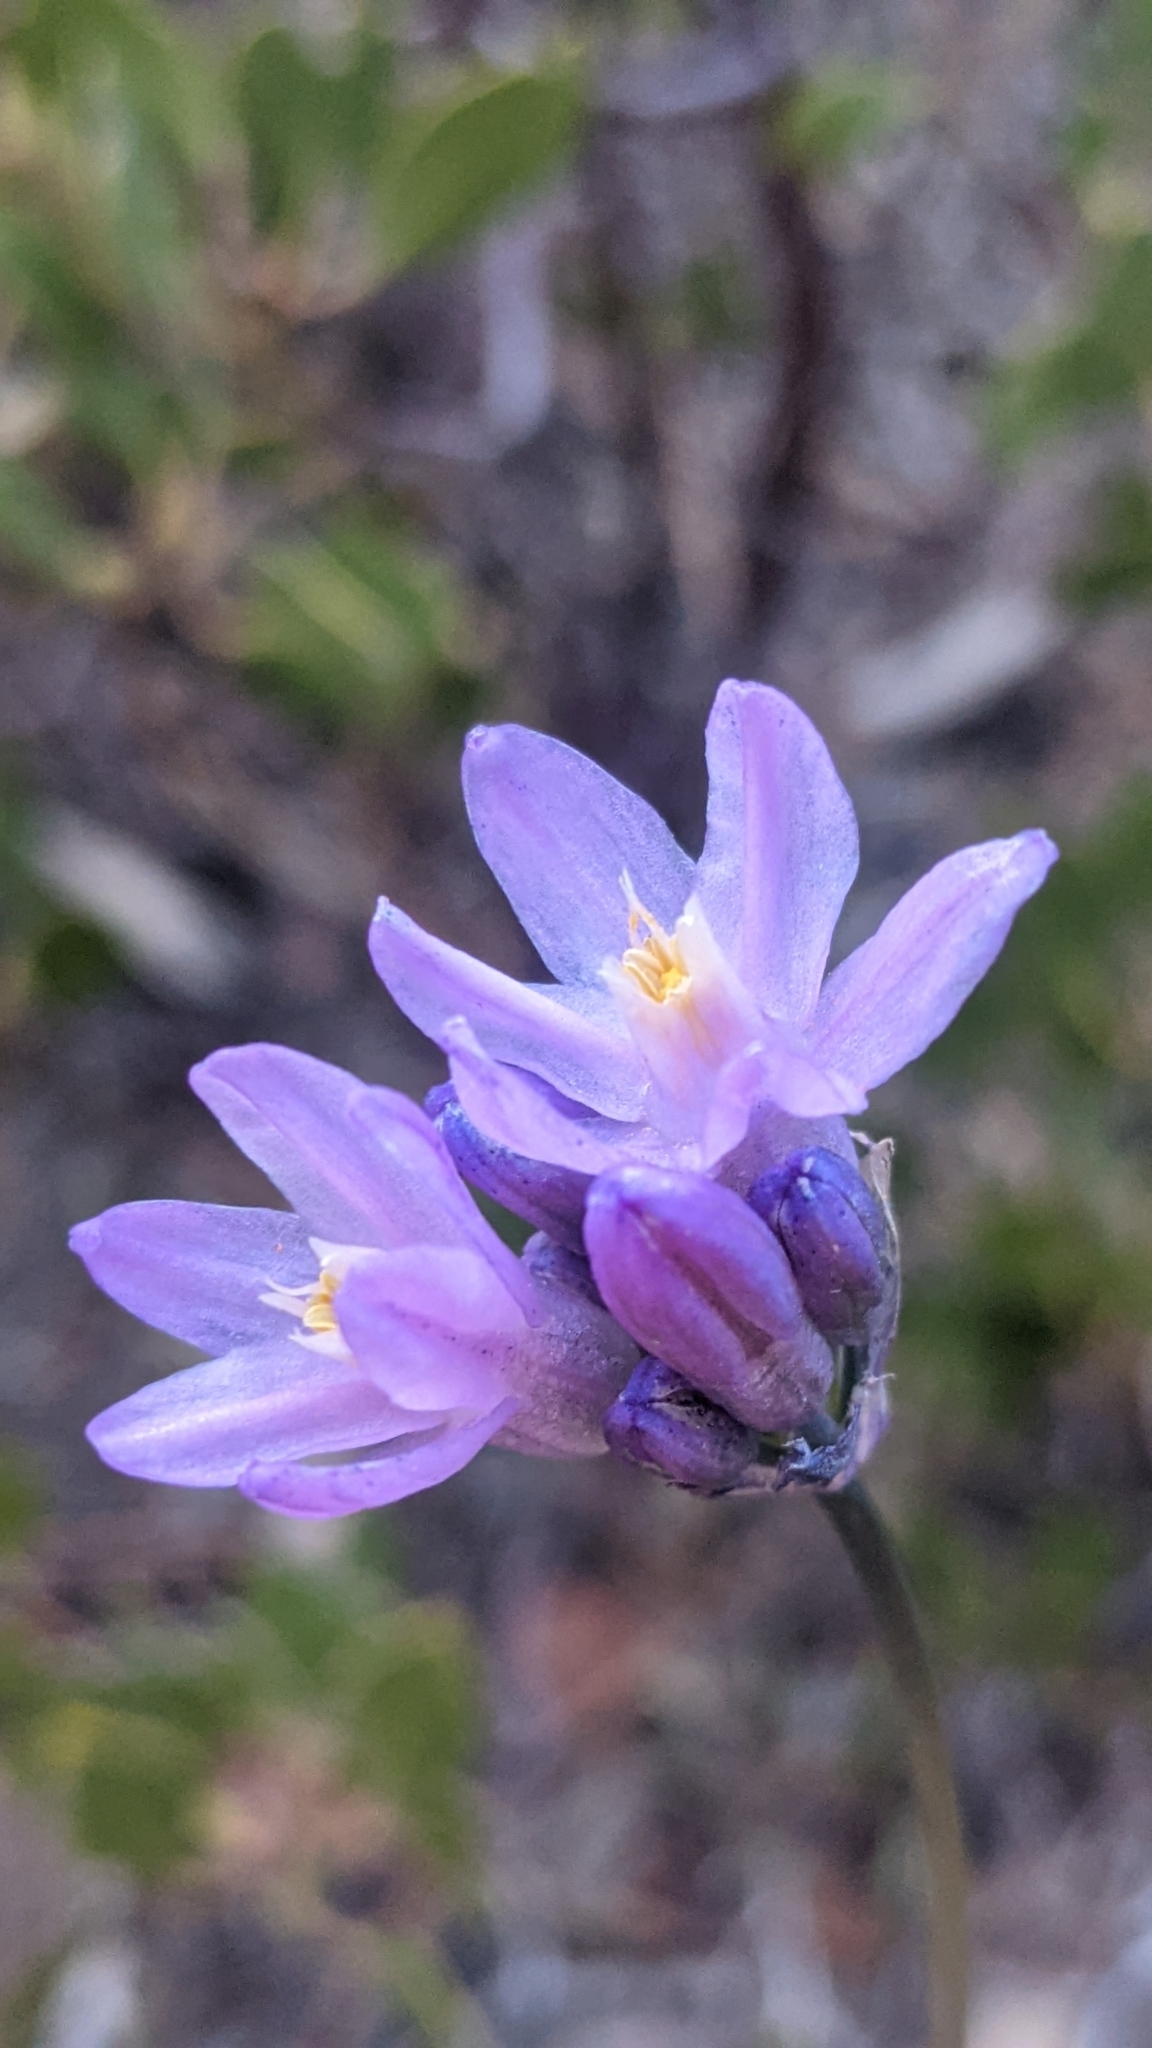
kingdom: Plantae
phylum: Tracheophyta
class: Liliopsida
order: Asparagales
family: Asparagaceae
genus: Dipterostemon
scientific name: Dipterostemon capitatus
